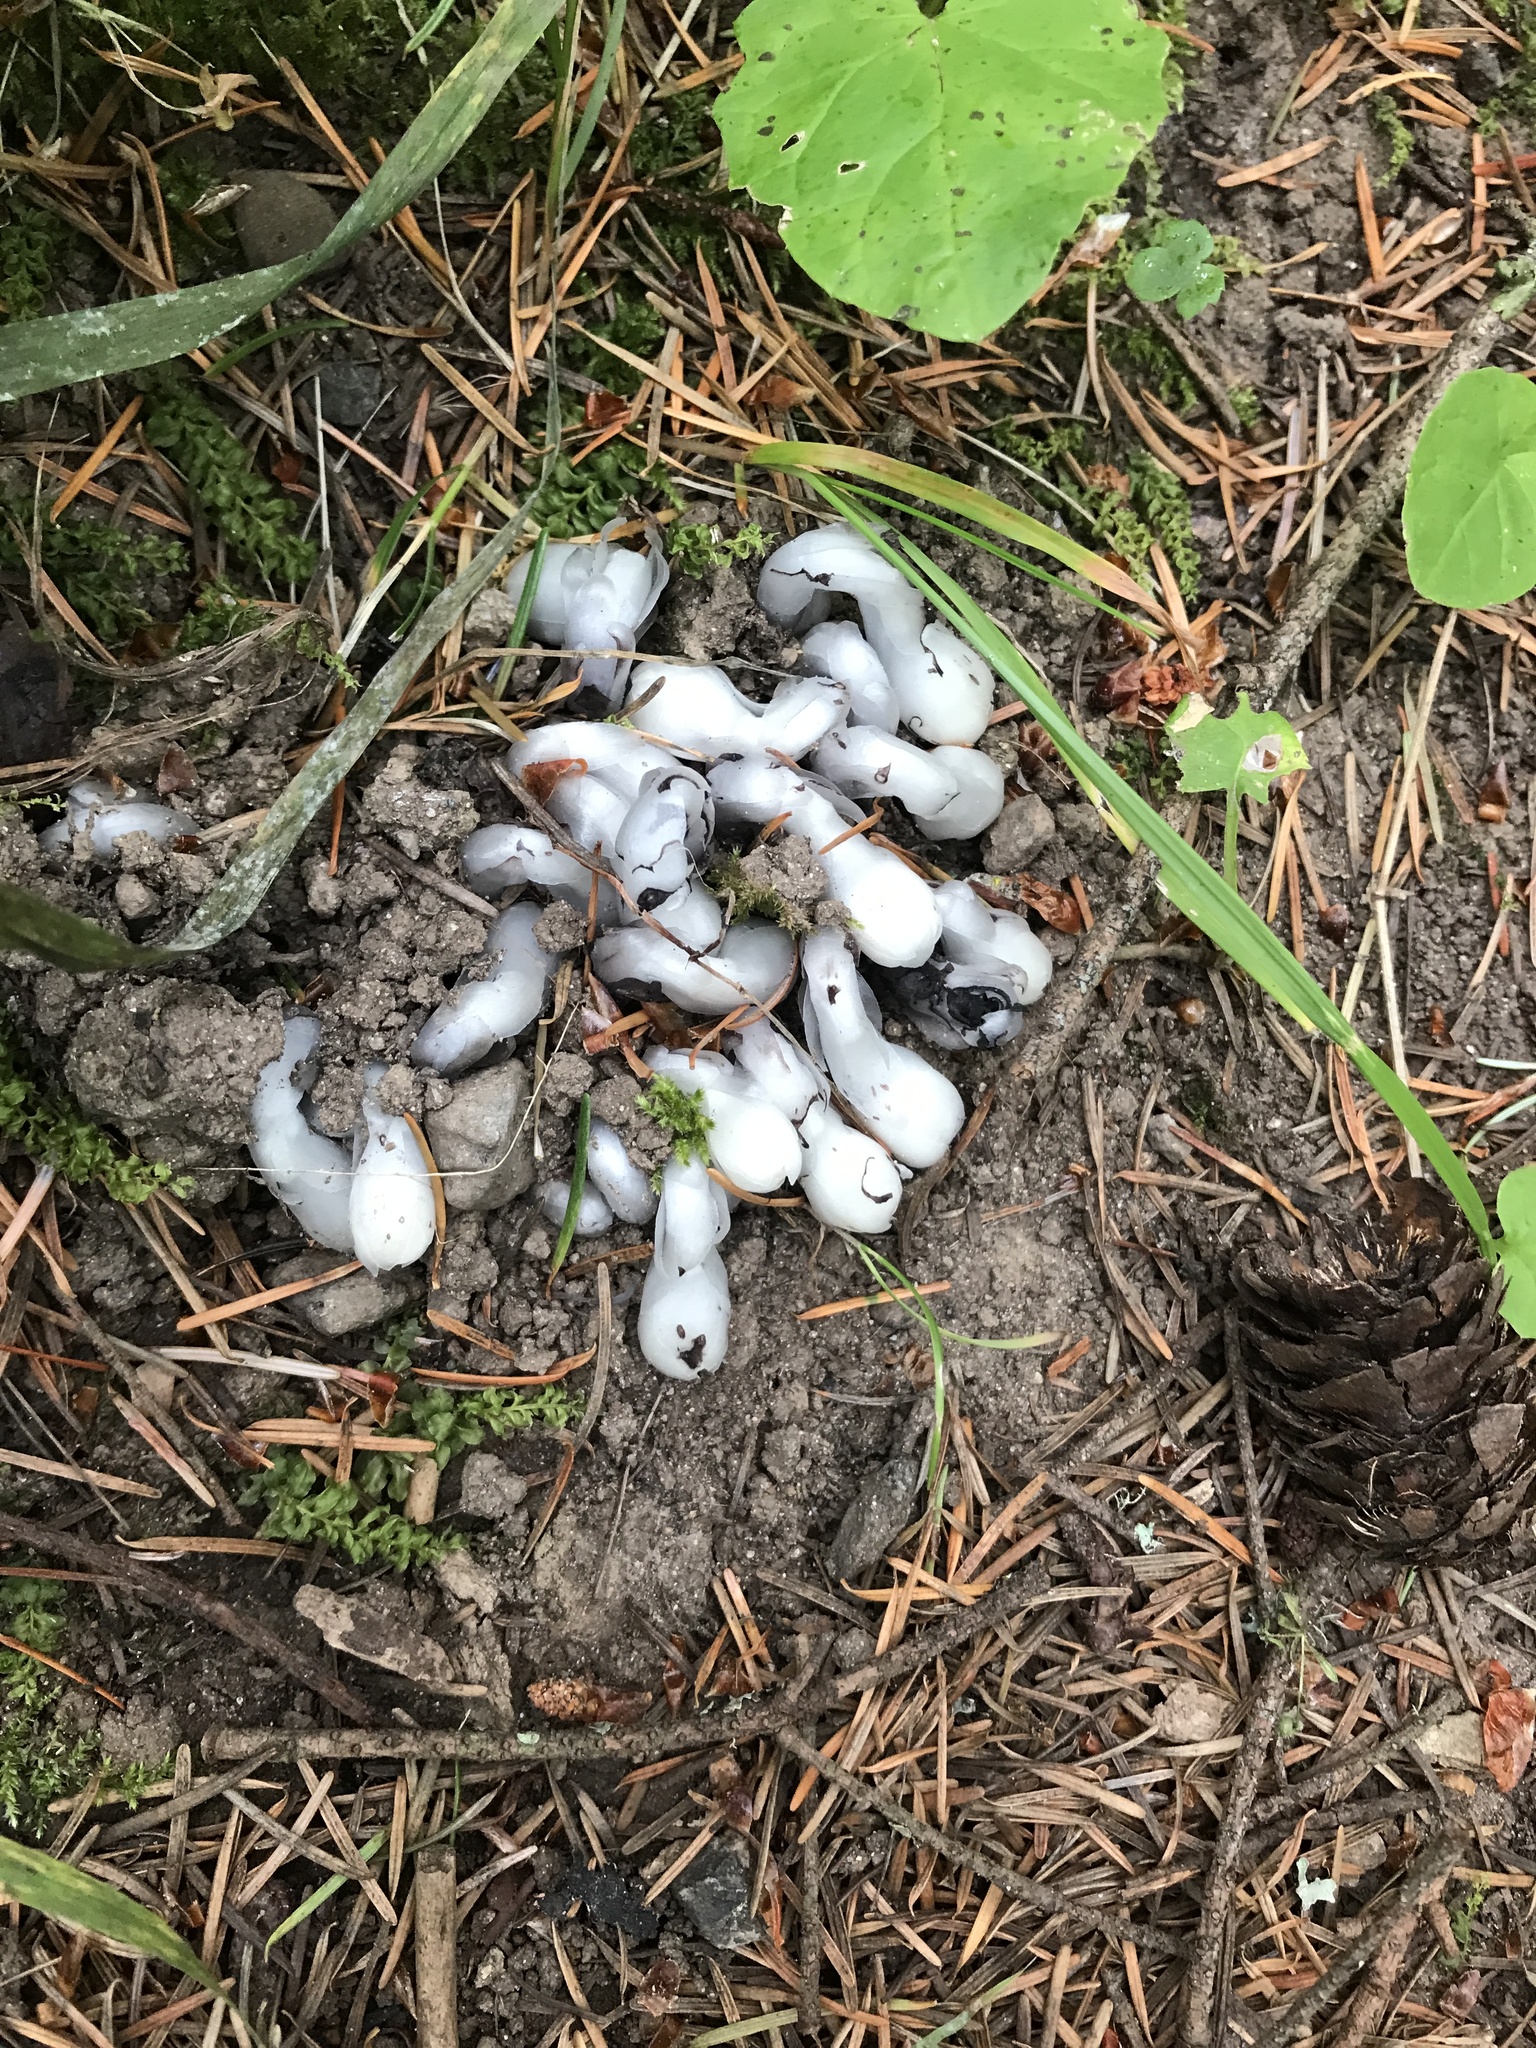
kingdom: Plantae
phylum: Tracheophyta
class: Magnoliopsida
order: Ericales
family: Ericaceae
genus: Monotropa
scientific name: Monotropa uniflora
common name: Convulsion root
